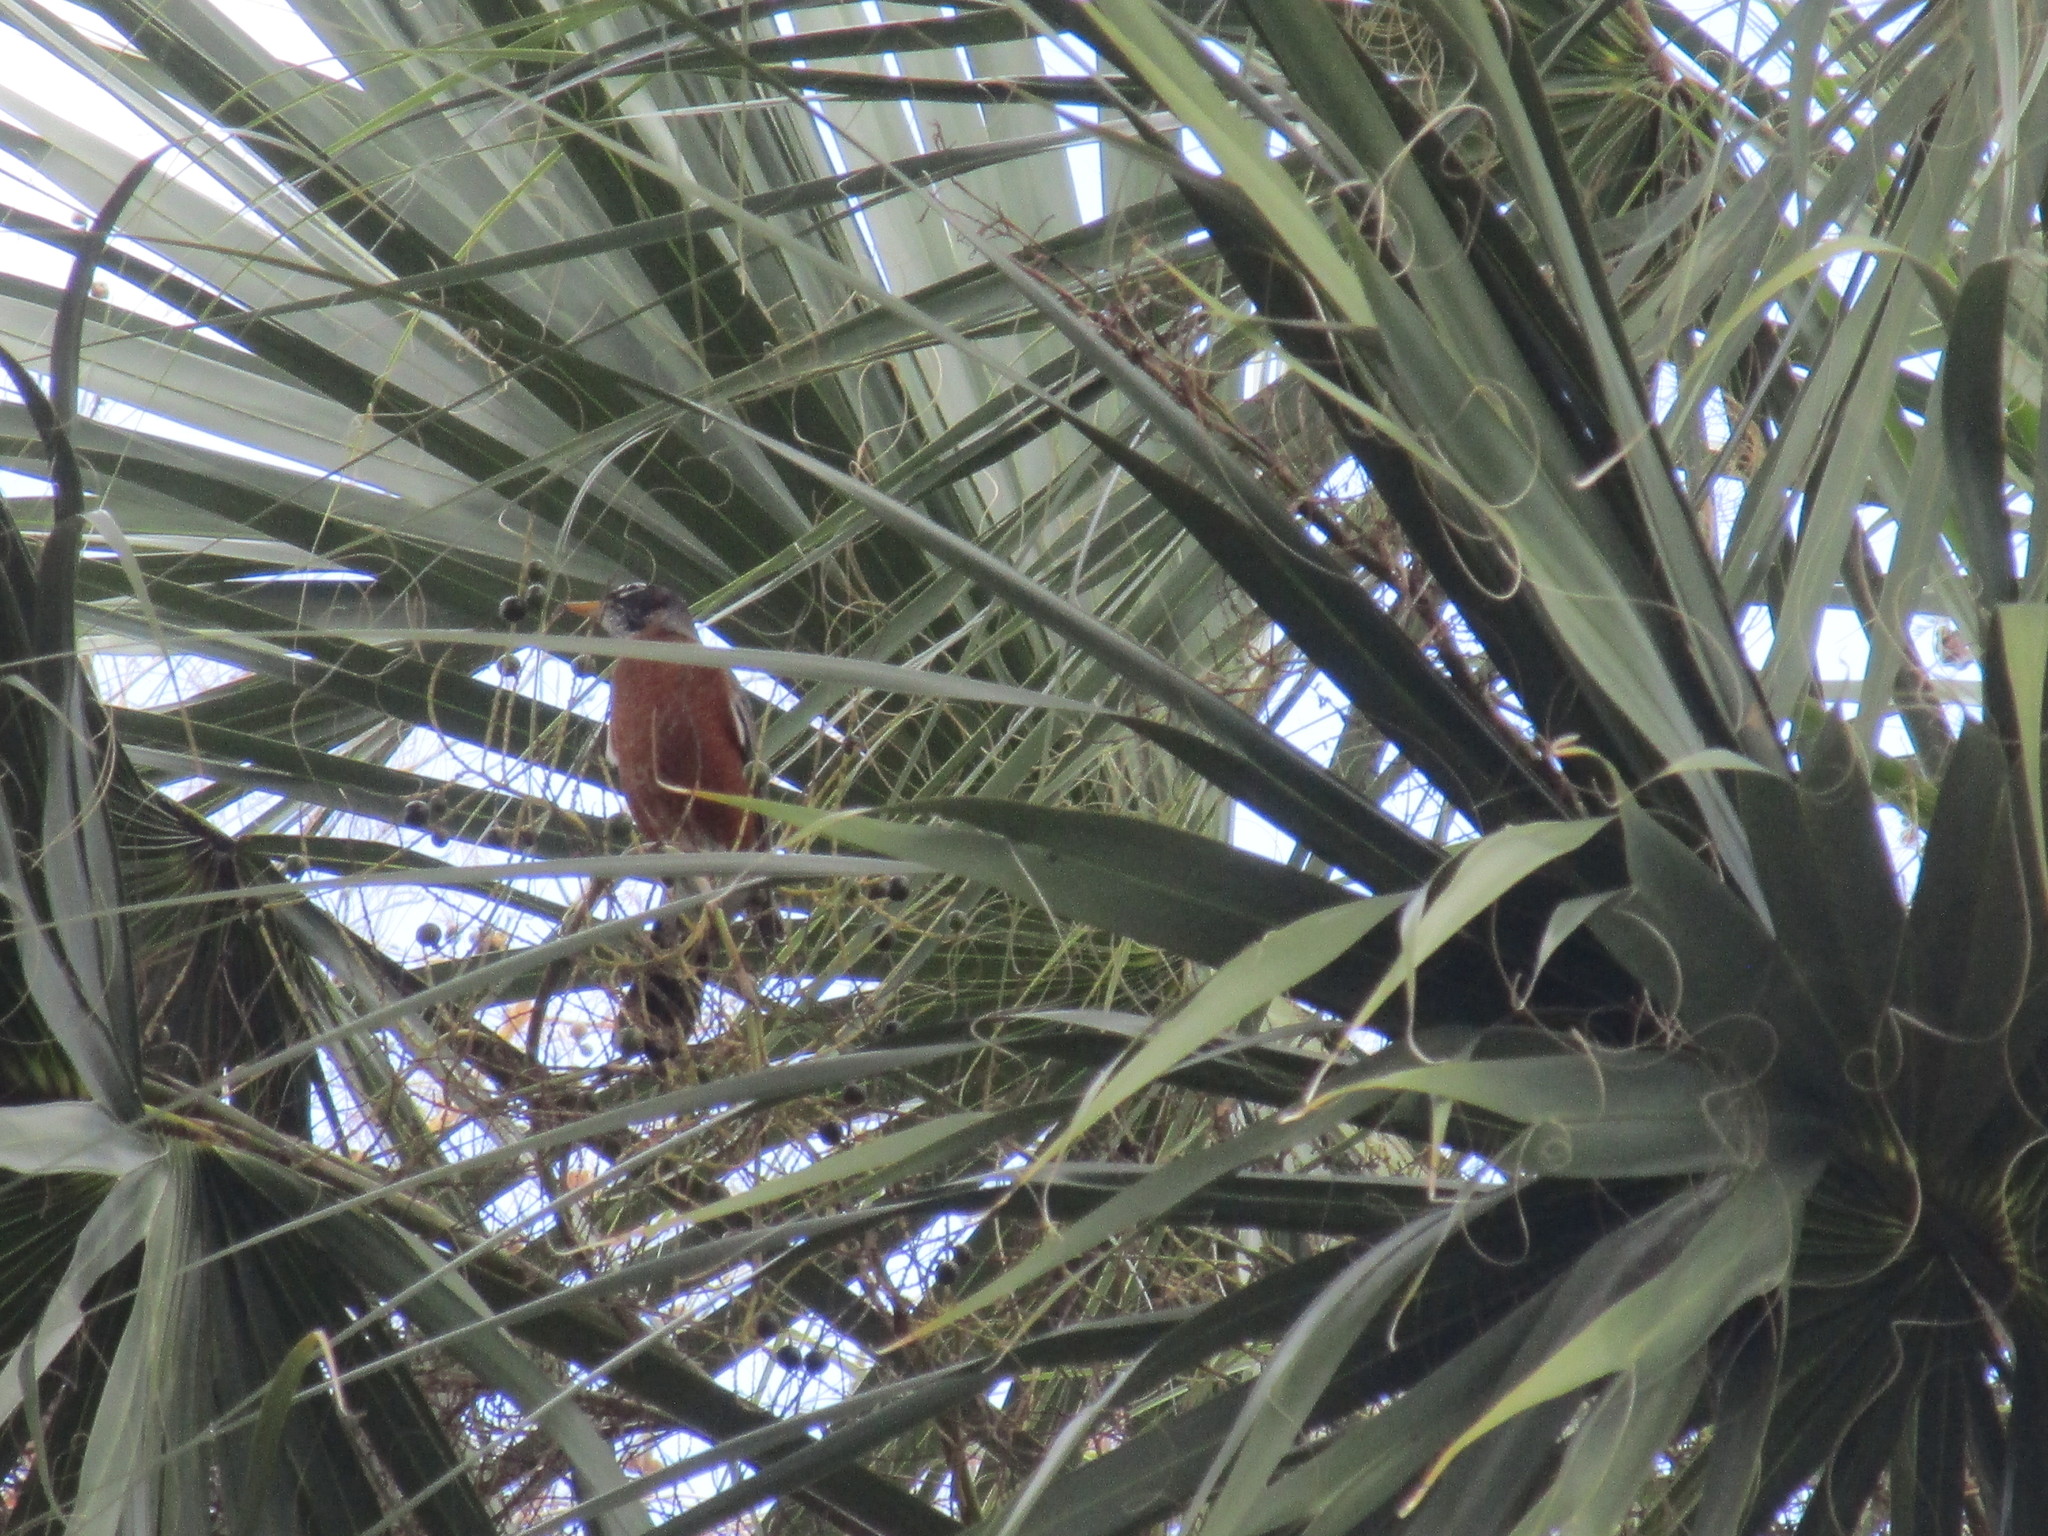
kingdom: Animalia
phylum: Chordata
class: Aves
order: Passeriformes
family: Turdidae
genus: Turdus
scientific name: Turdus migratorius
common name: American robin
